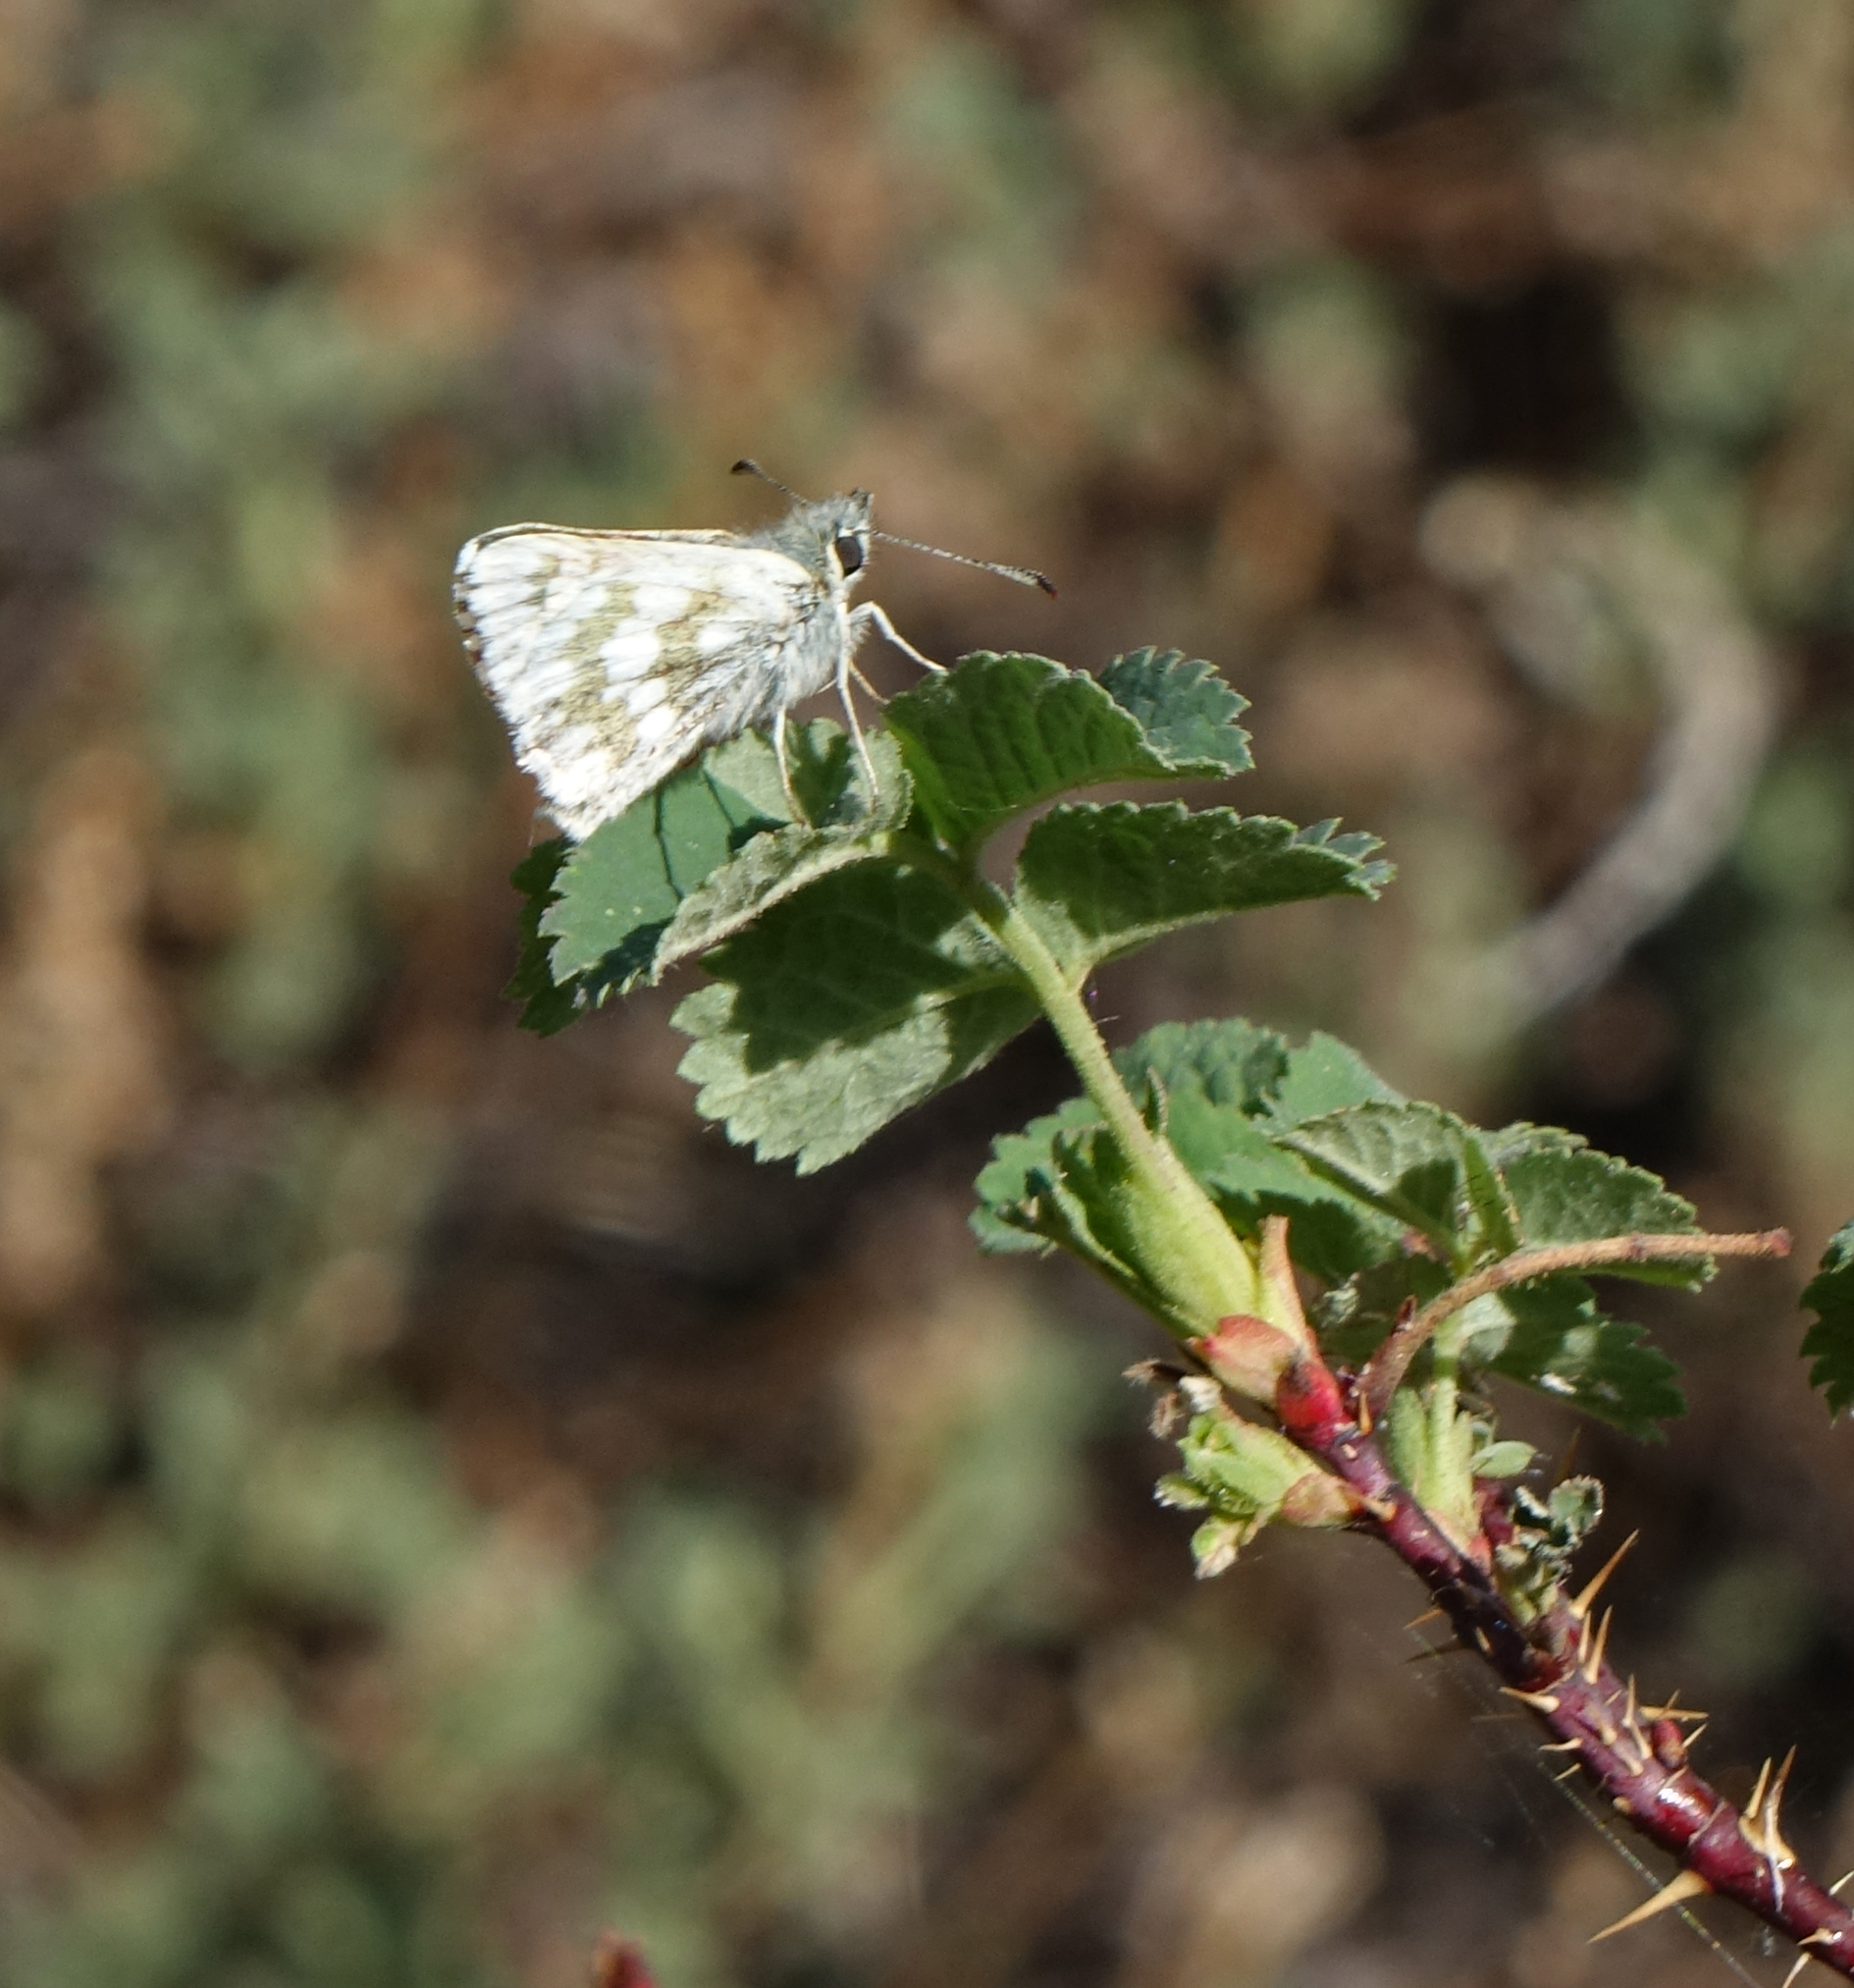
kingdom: Animalia
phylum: Arthropoda
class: Insecta
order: Lepidoptera
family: Hesperiidae
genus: Syrichtus
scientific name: Syrichtus cribrellum
